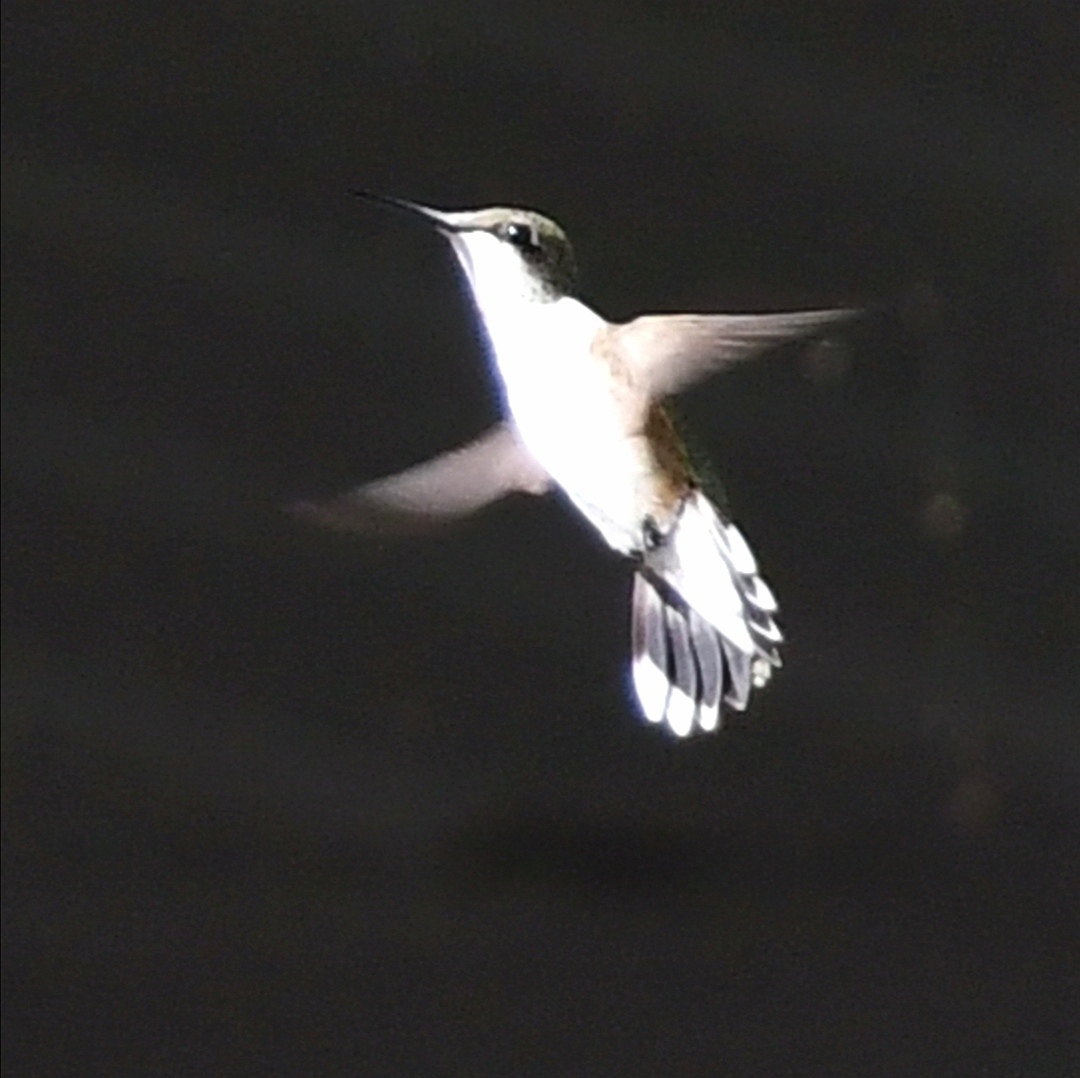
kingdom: Animalia
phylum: Chordata
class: Aves
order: Apodiformes
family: Trochilidae
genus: Archilochus
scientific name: Archilochus colubris
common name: Ruby-throated hummingbird
